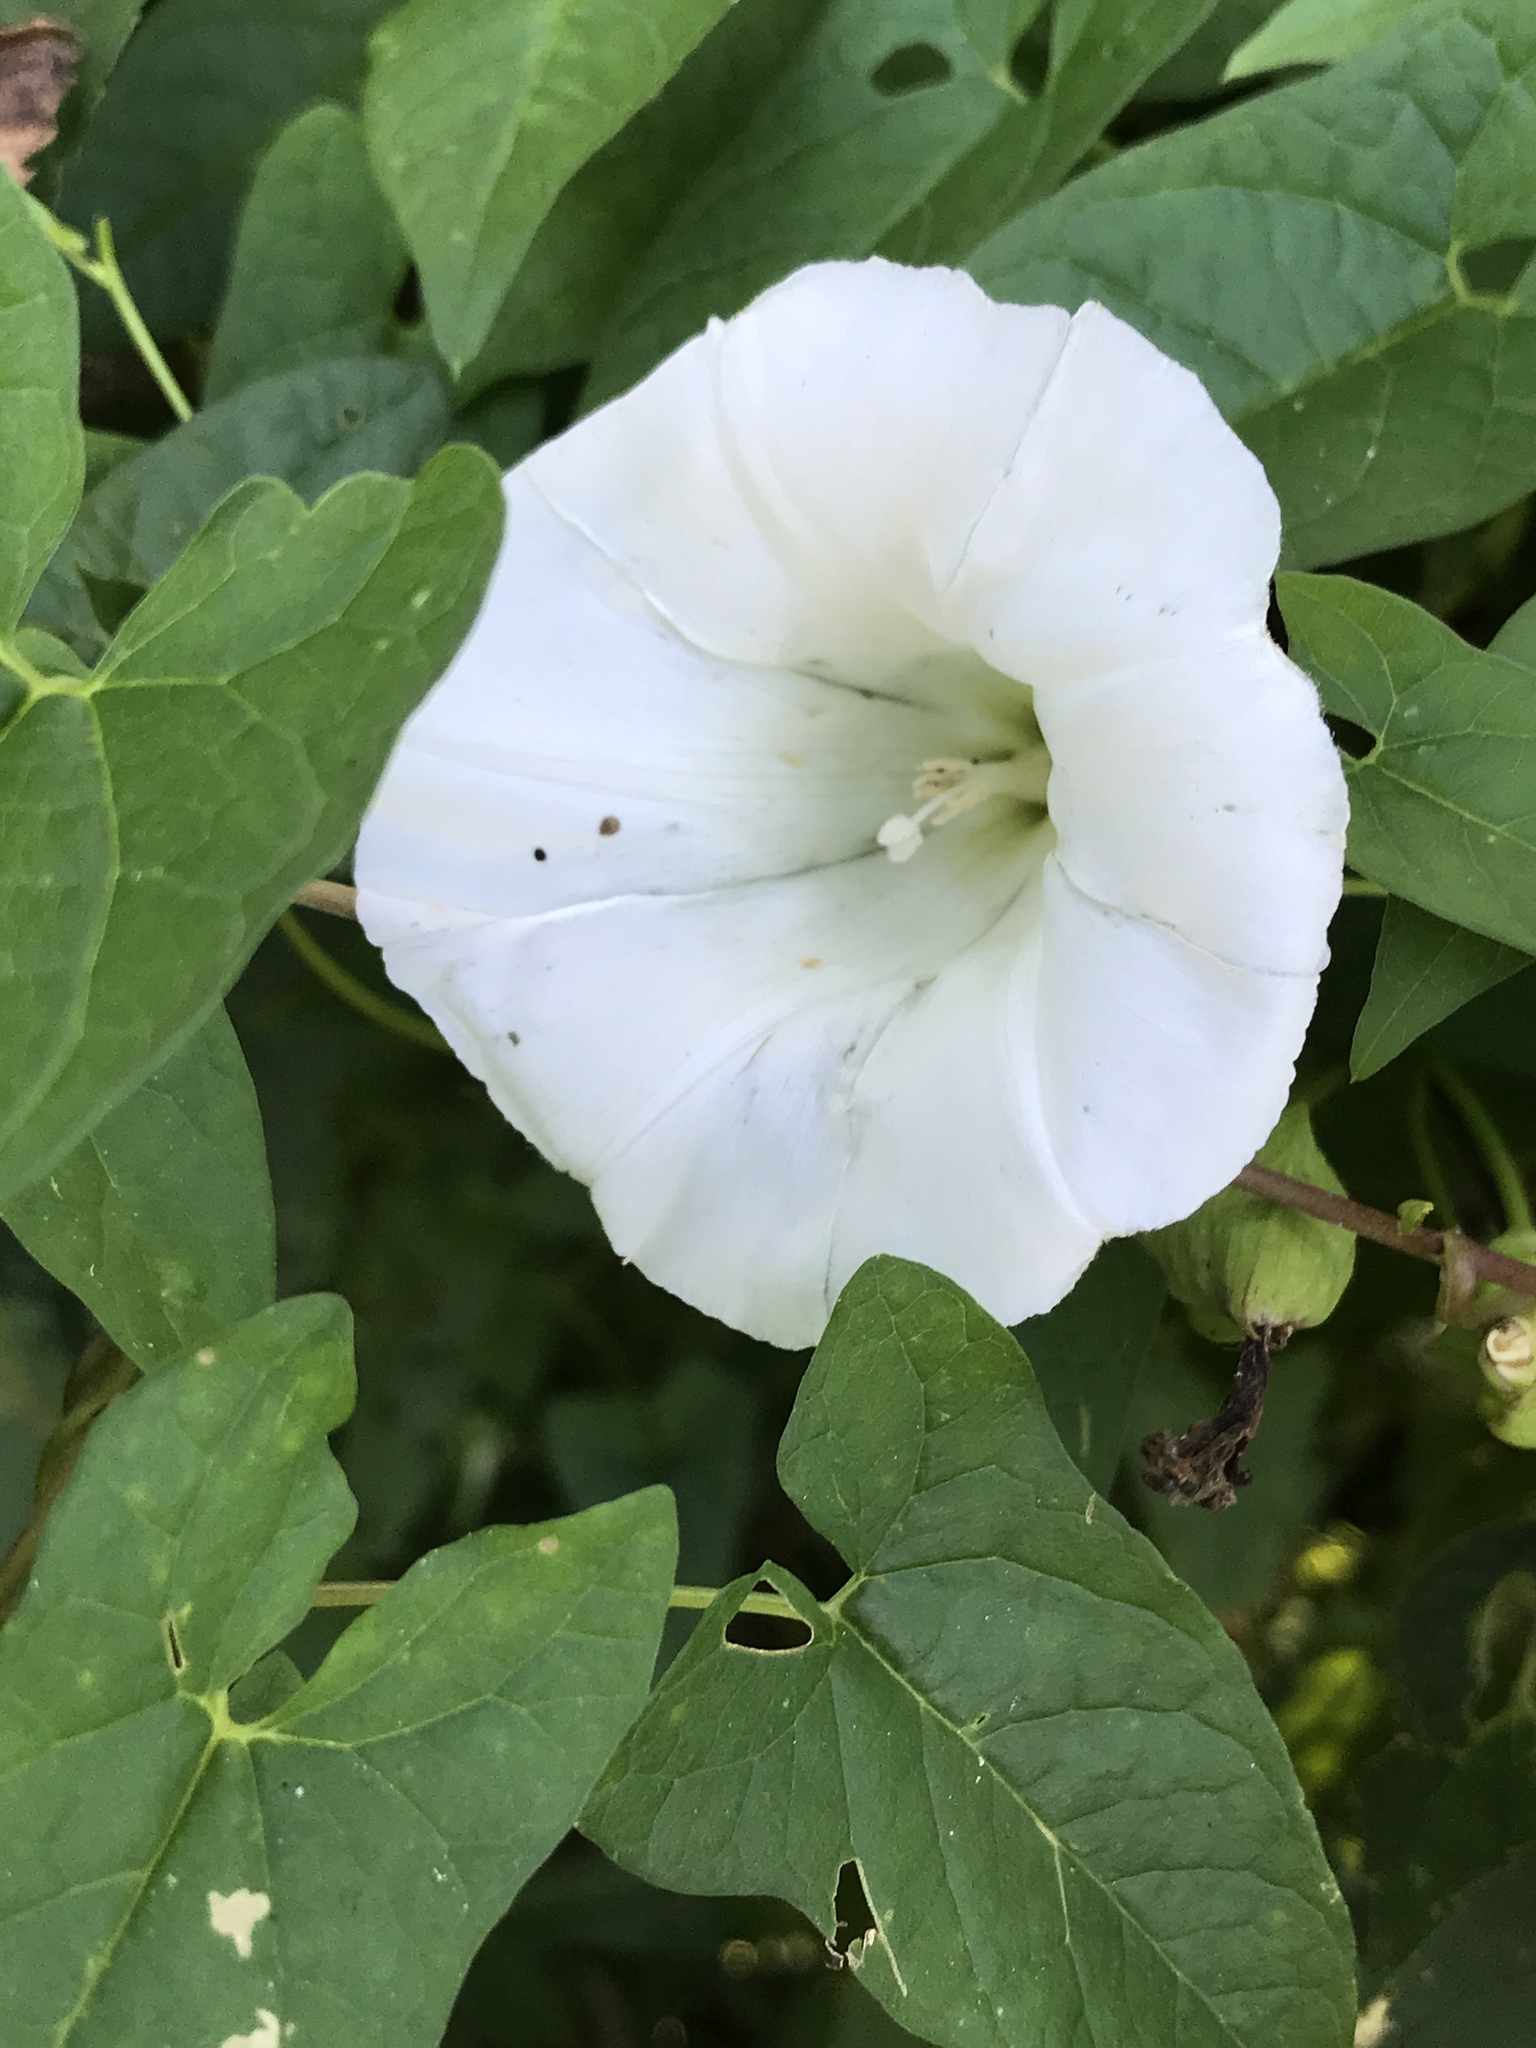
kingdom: Plantae
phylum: Tracheophyta
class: Magnoliopsida
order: Solanales
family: Convolvulaceae
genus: Calystegia
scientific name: Calystegia sepium
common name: Hedge bindweed
